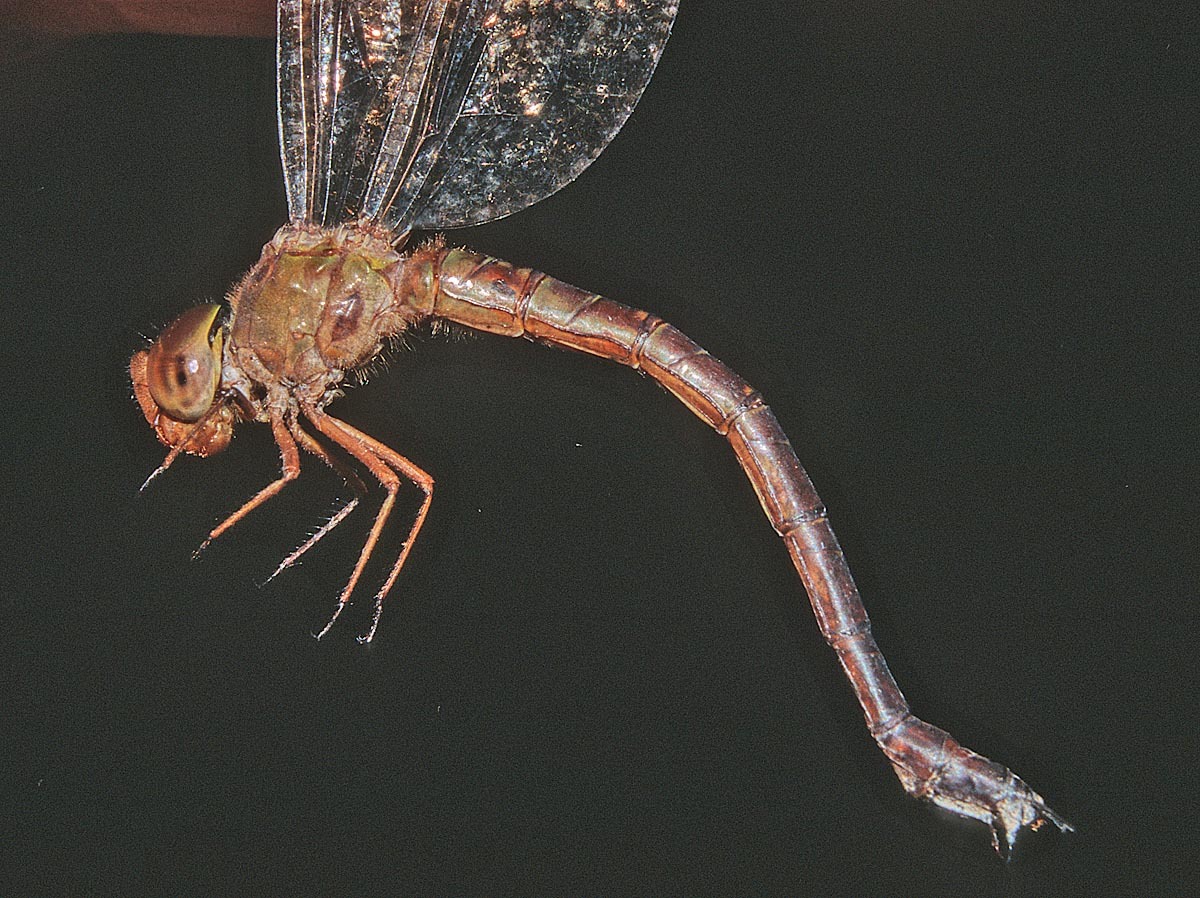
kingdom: Animalia
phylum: Arthropoda
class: Insecta
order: Odonata
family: Aeshnidae
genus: Gynacantha
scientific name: Gynacantha bartai
